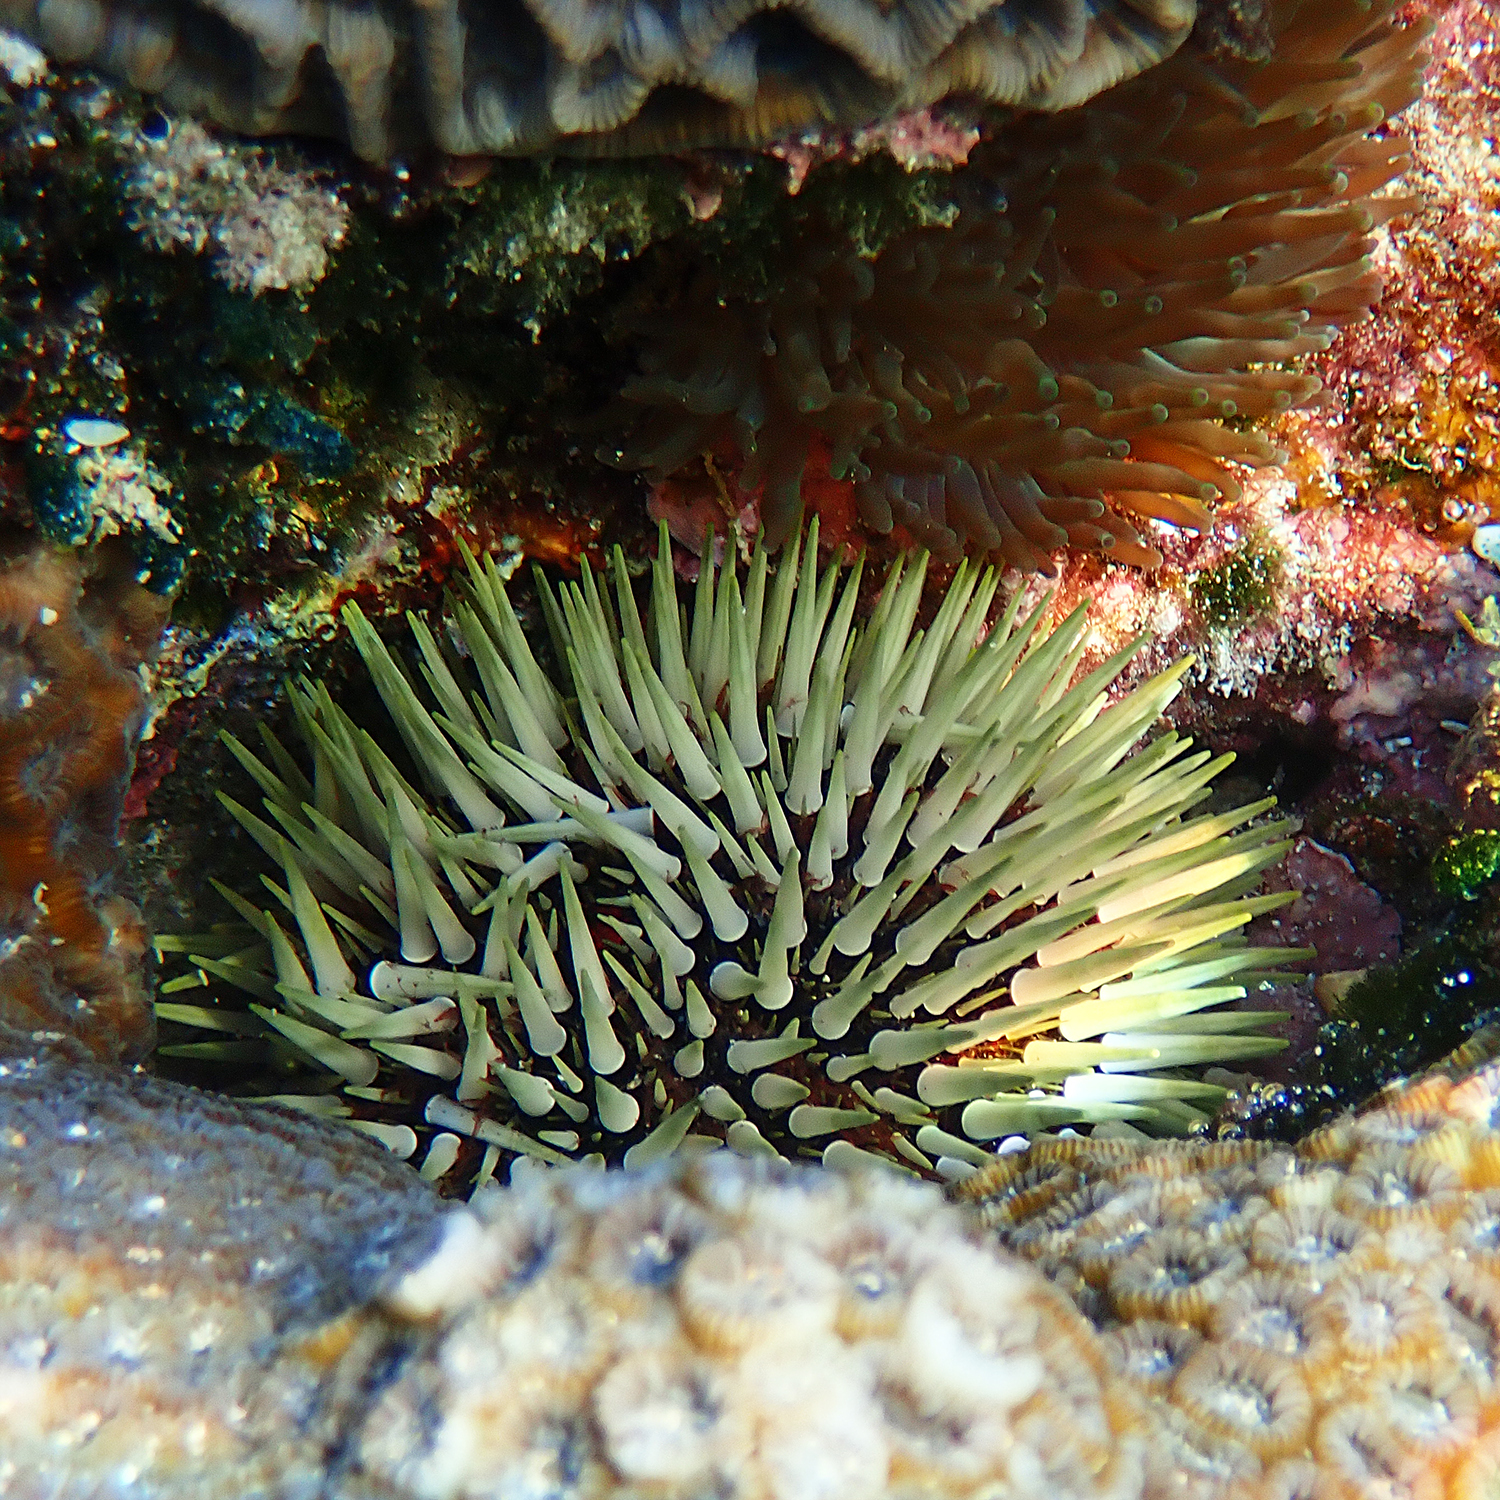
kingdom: Animalia
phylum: Echinodermata
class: Echinoidea
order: Camarodonta
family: Echinometridae
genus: Echinometra
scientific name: Echinometra mathaei
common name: Rock-boring urchin
